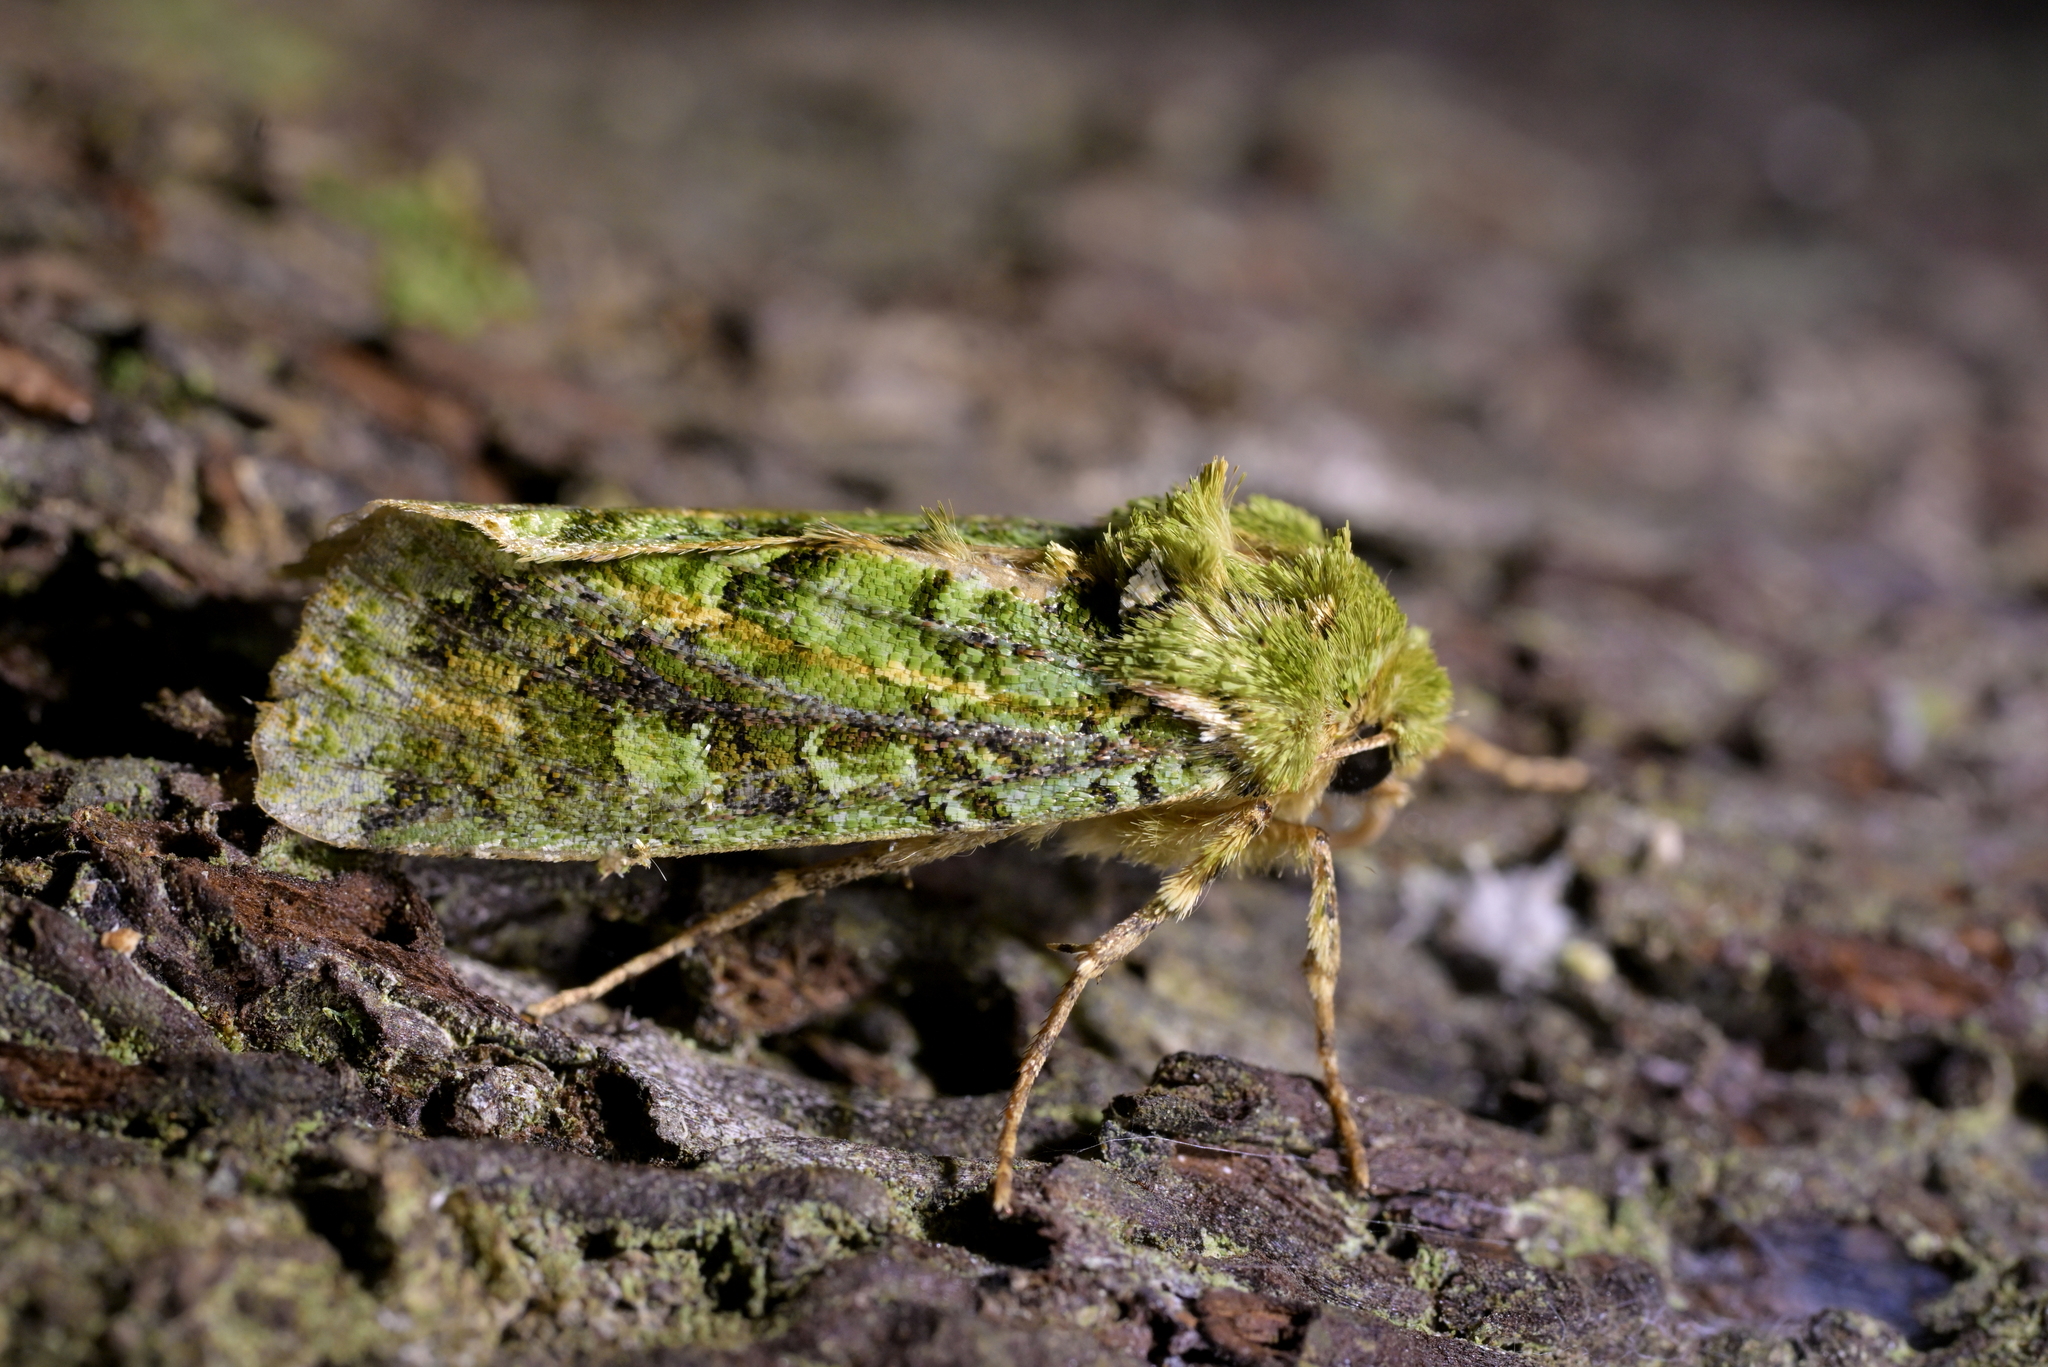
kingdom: Animalia
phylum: Arthropoda
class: Insecta
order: Lepidoptera
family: Noctuidae
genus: Feredayia
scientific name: Feredayia grammosa
